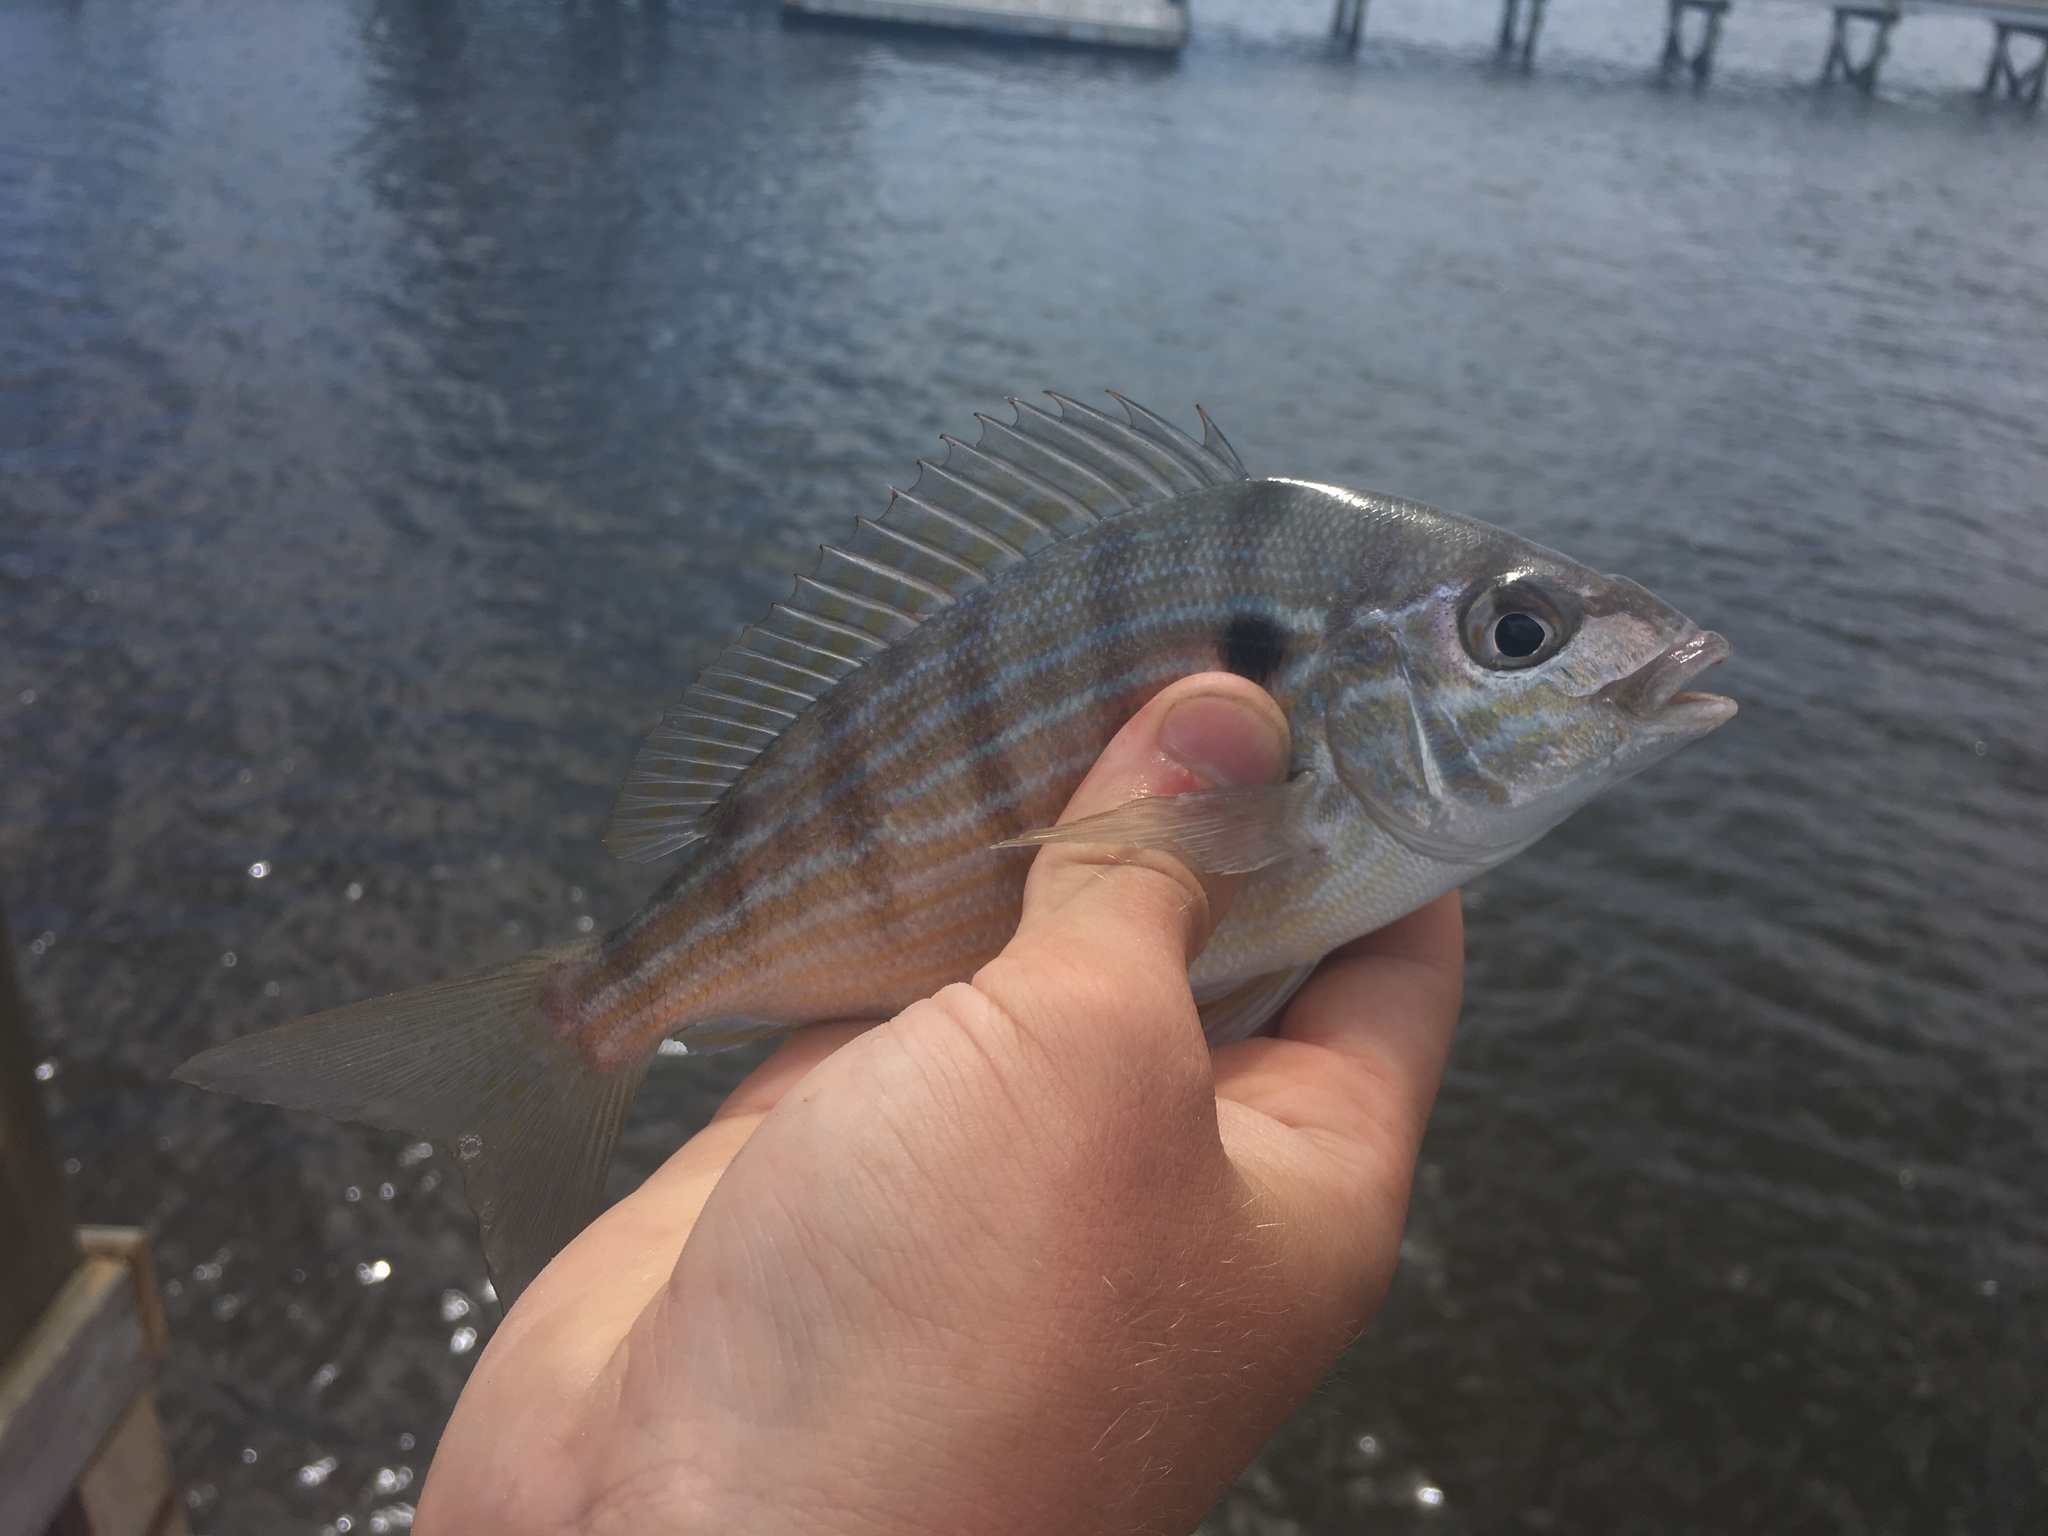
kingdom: Animalia
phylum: Chordata
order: Perciformes
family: Sparidae
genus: Lagodon
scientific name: Lagodon rhomboides
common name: Pinfish
